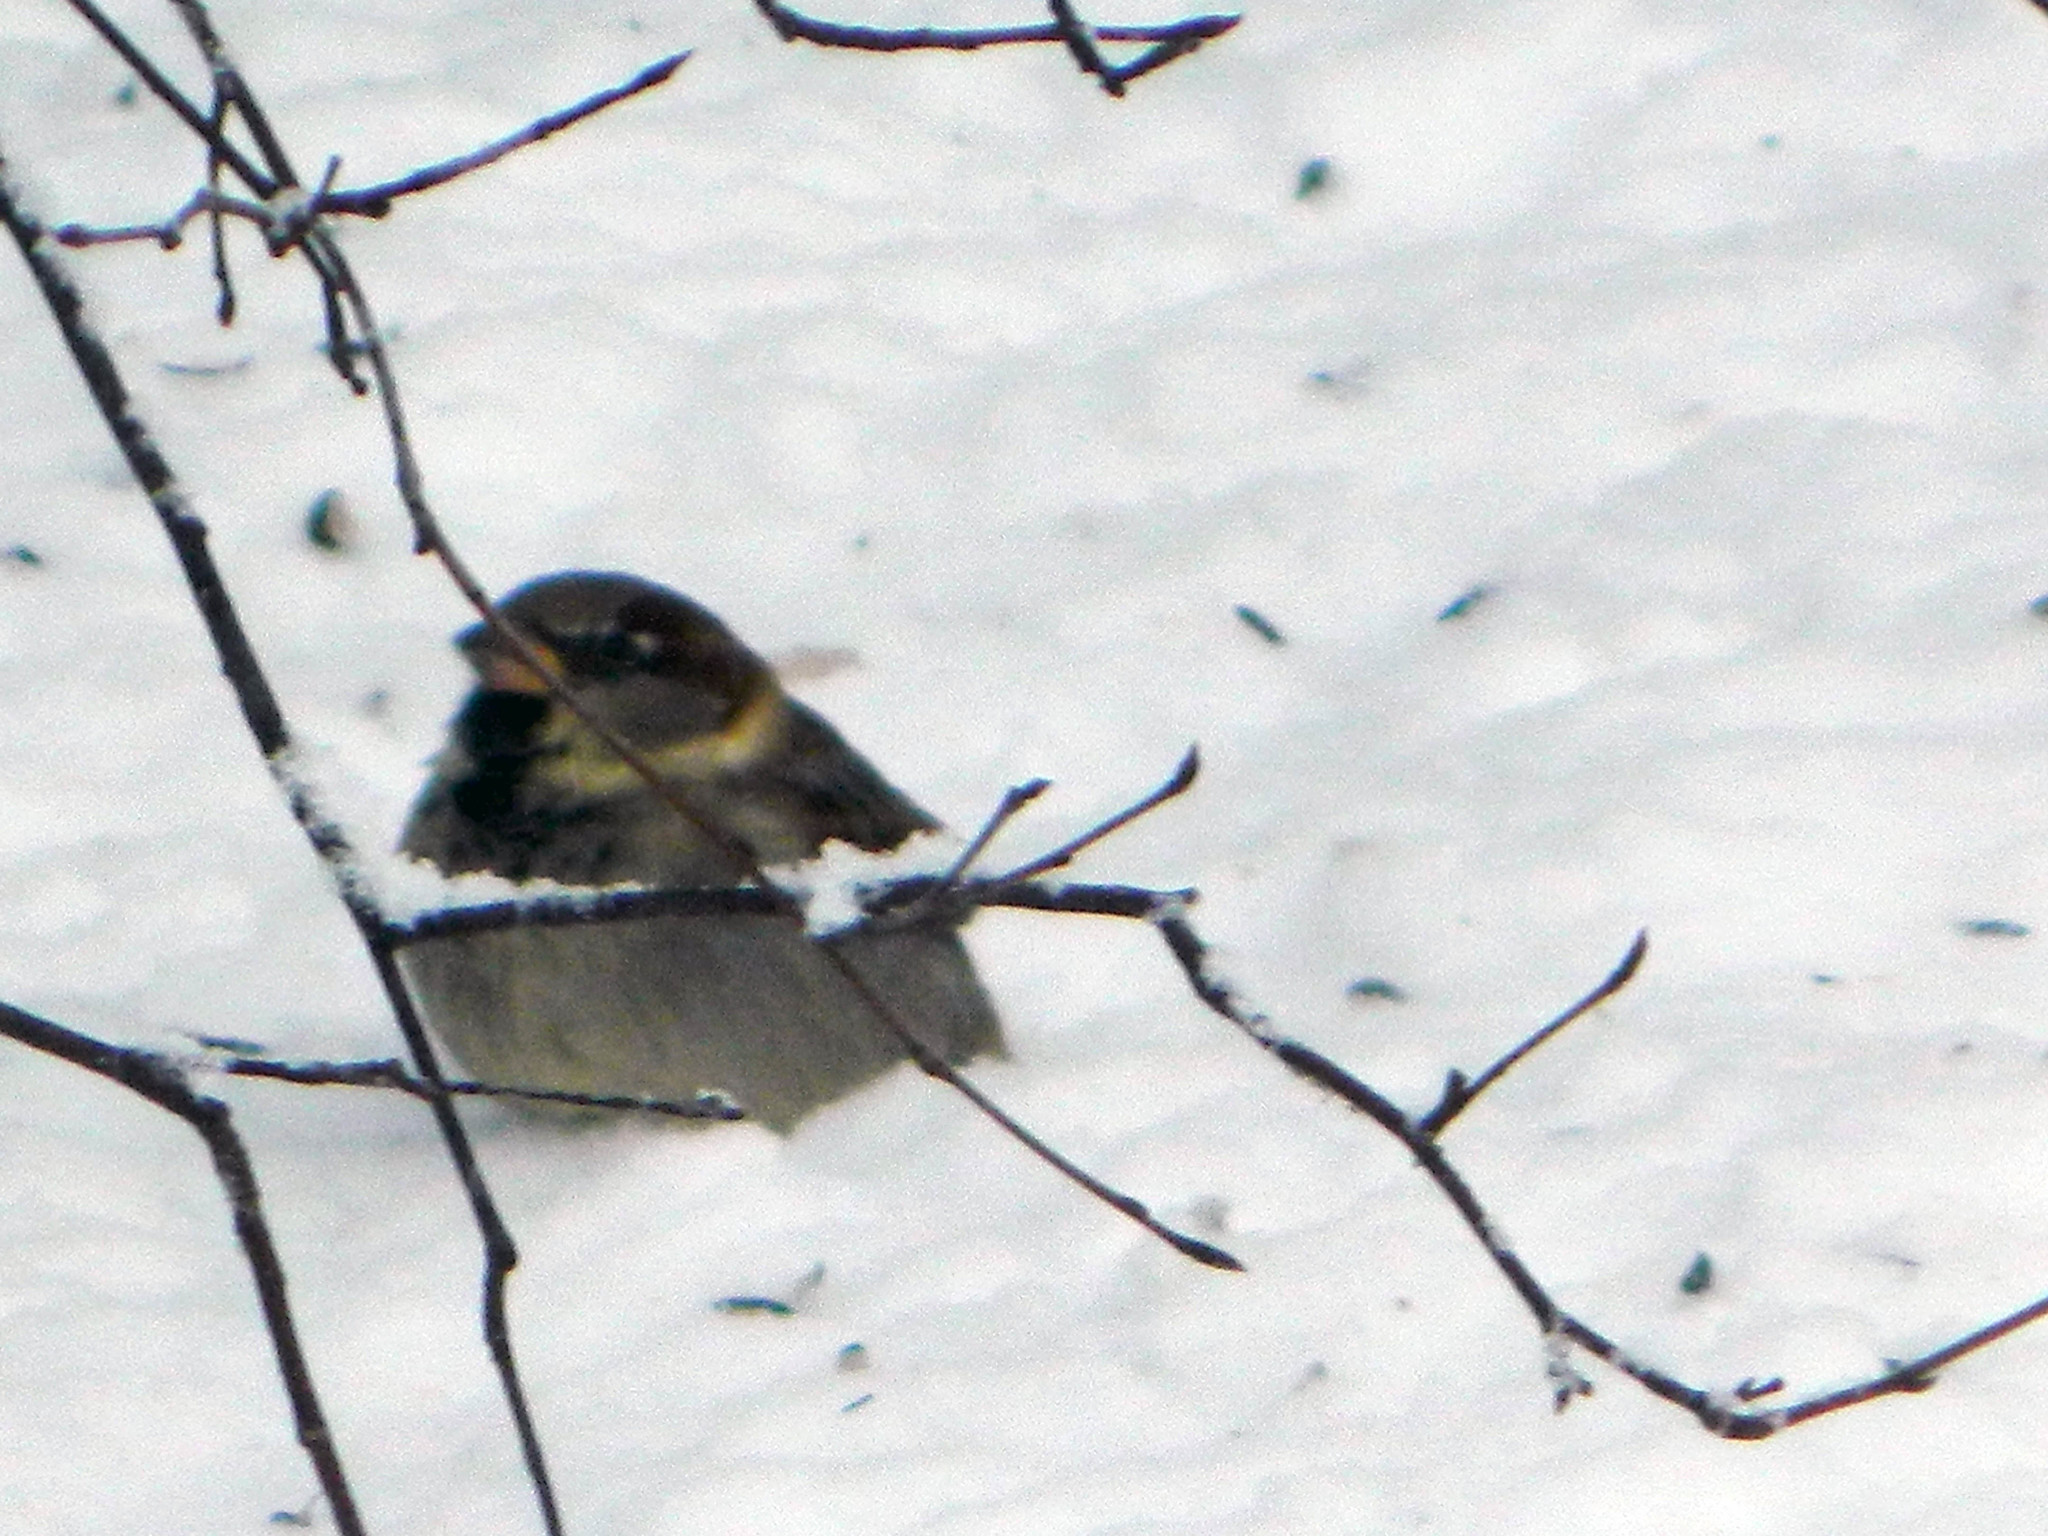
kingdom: Animalia
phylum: Chordata
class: Aves
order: Passeriformes
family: Passeridae
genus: Passer
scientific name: Passer domesticus
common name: House sparrow
